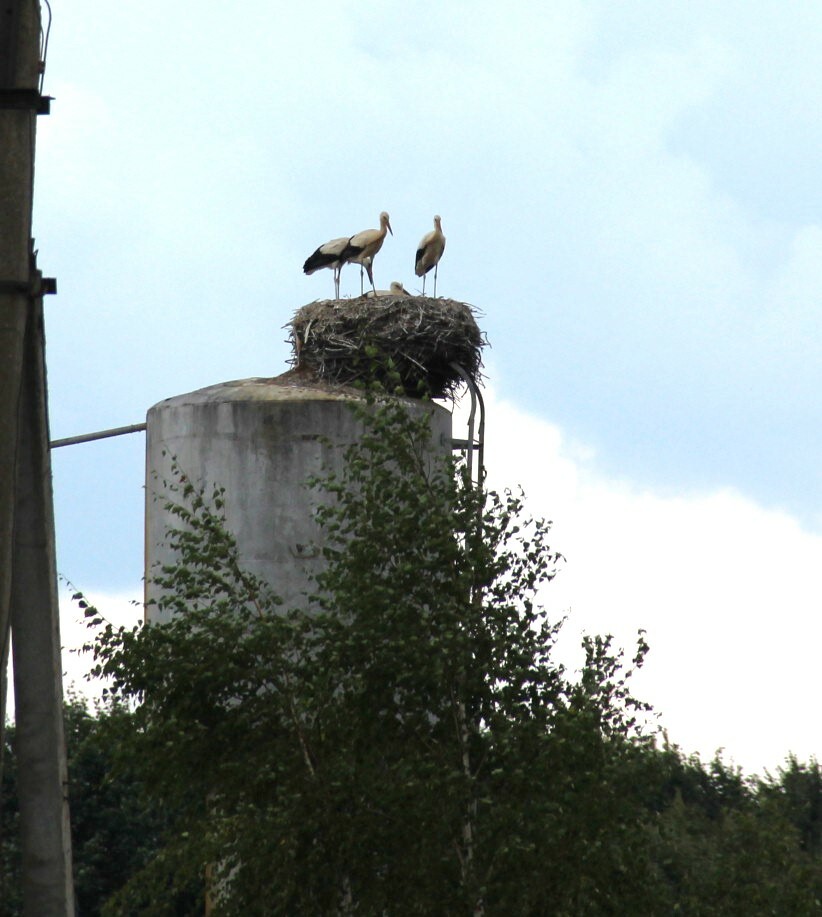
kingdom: Animalia
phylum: Chordata
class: Aves
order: Ciconiiformes
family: Ciconiidae
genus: Ciconia
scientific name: Ciconia ciconia
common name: White stork
